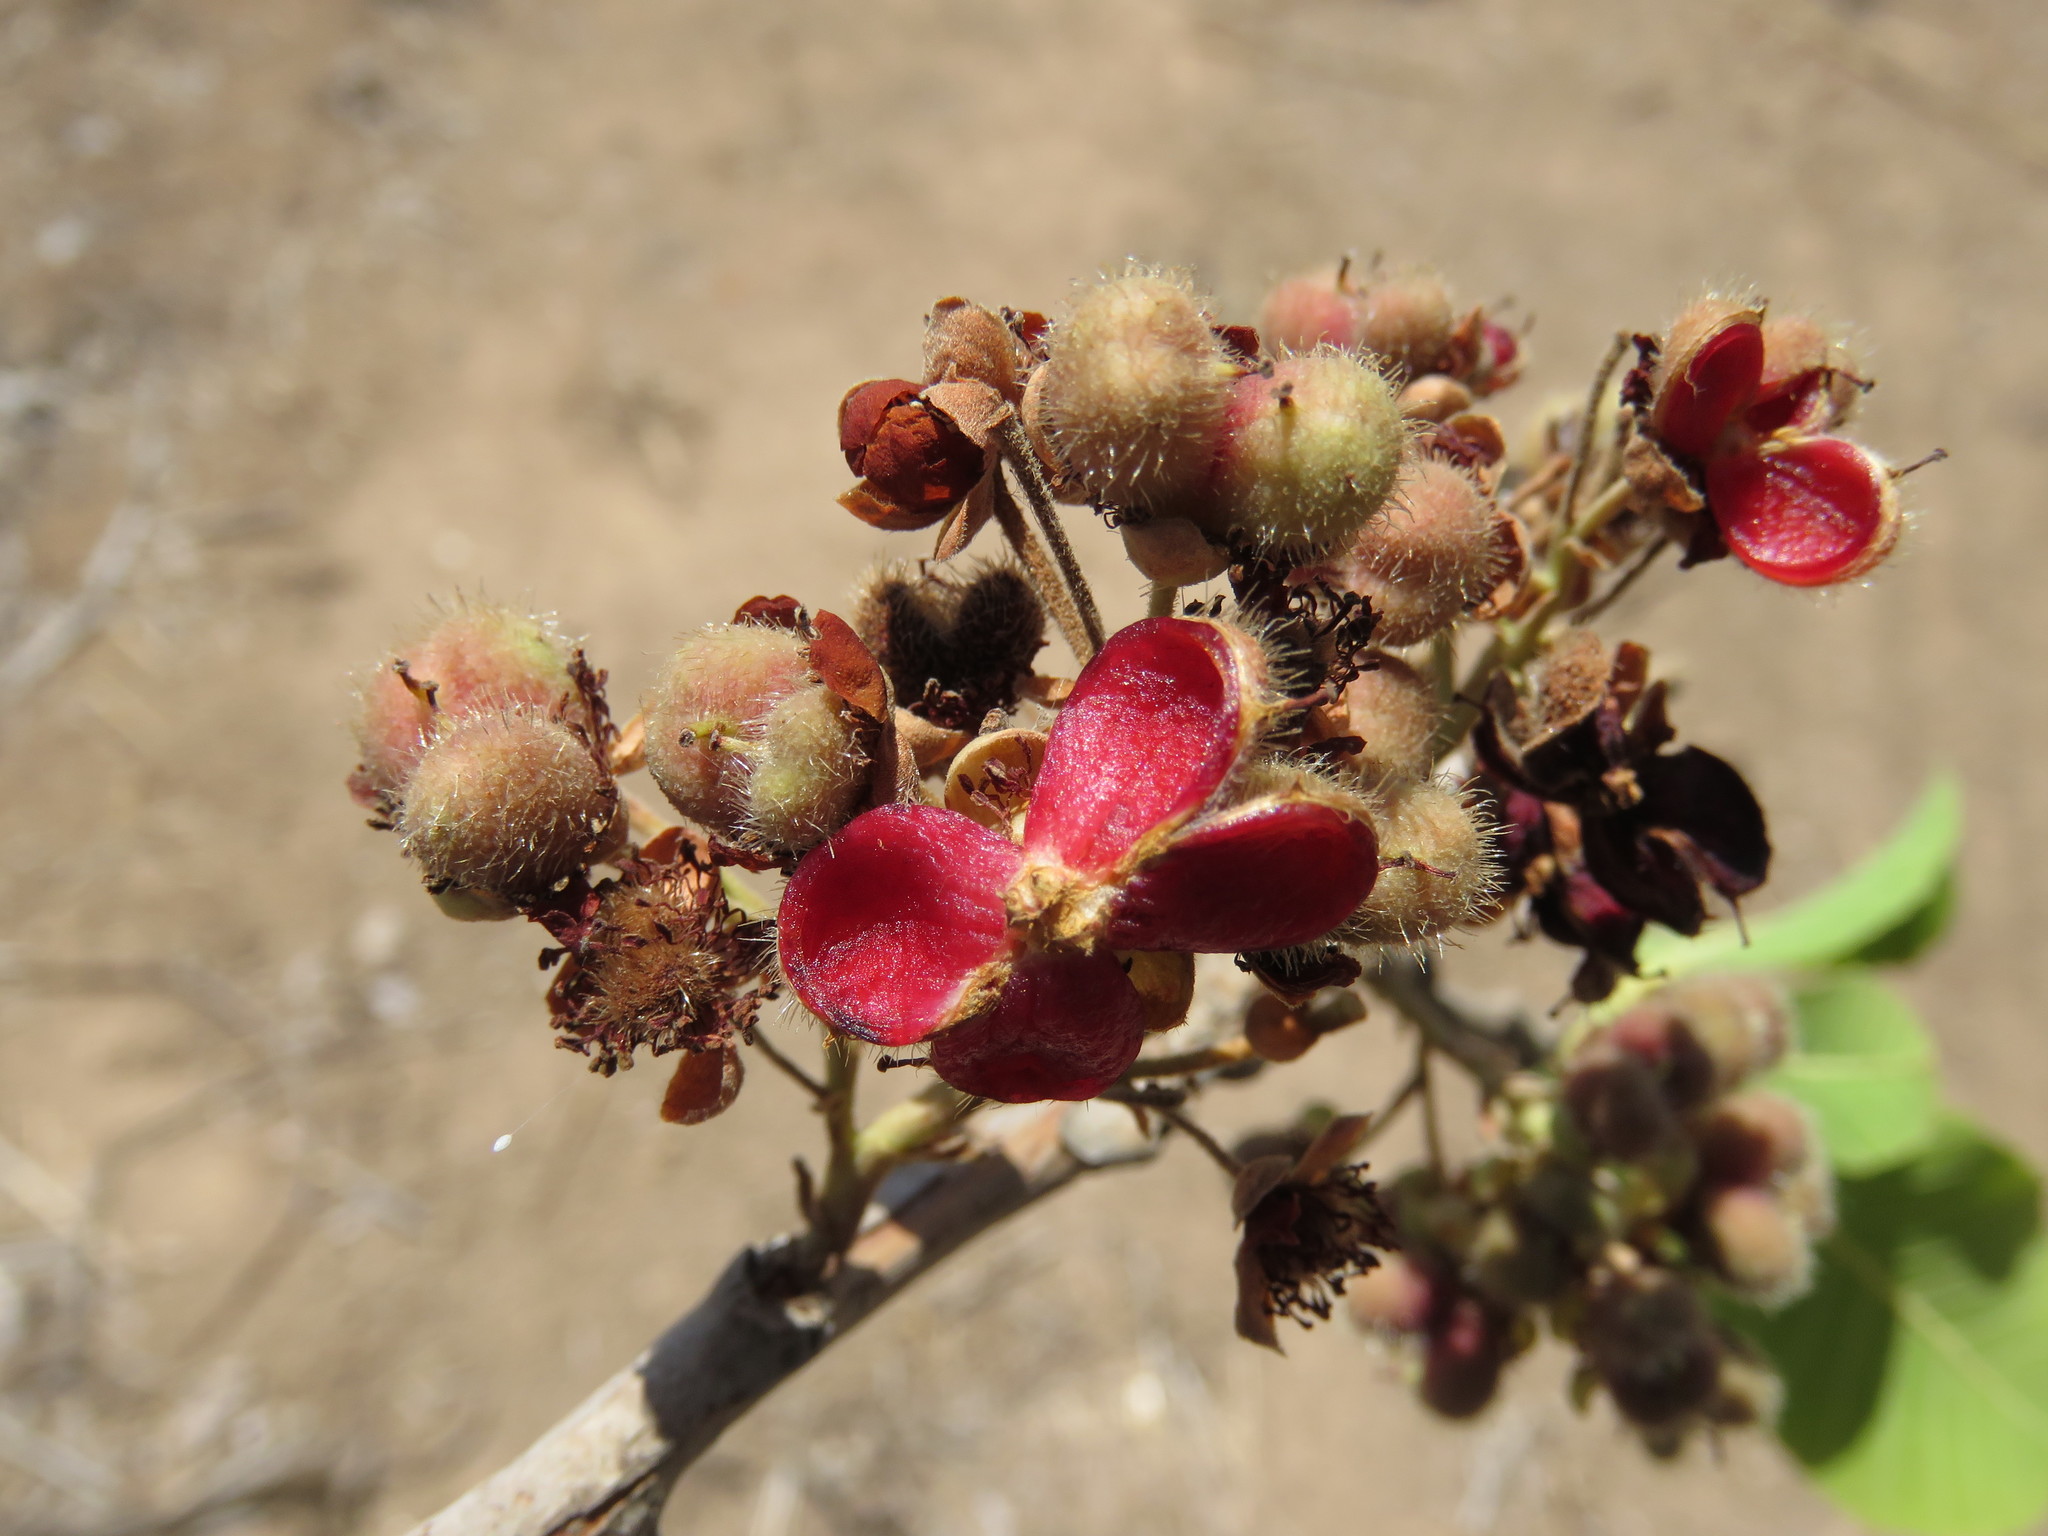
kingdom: Plantae
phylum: Tracheophyta
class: Magnoliopsida
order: Dilleniales
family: Dilleniaceae
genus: Curatella
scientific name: Curatella americana
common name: Sandpaper tree
